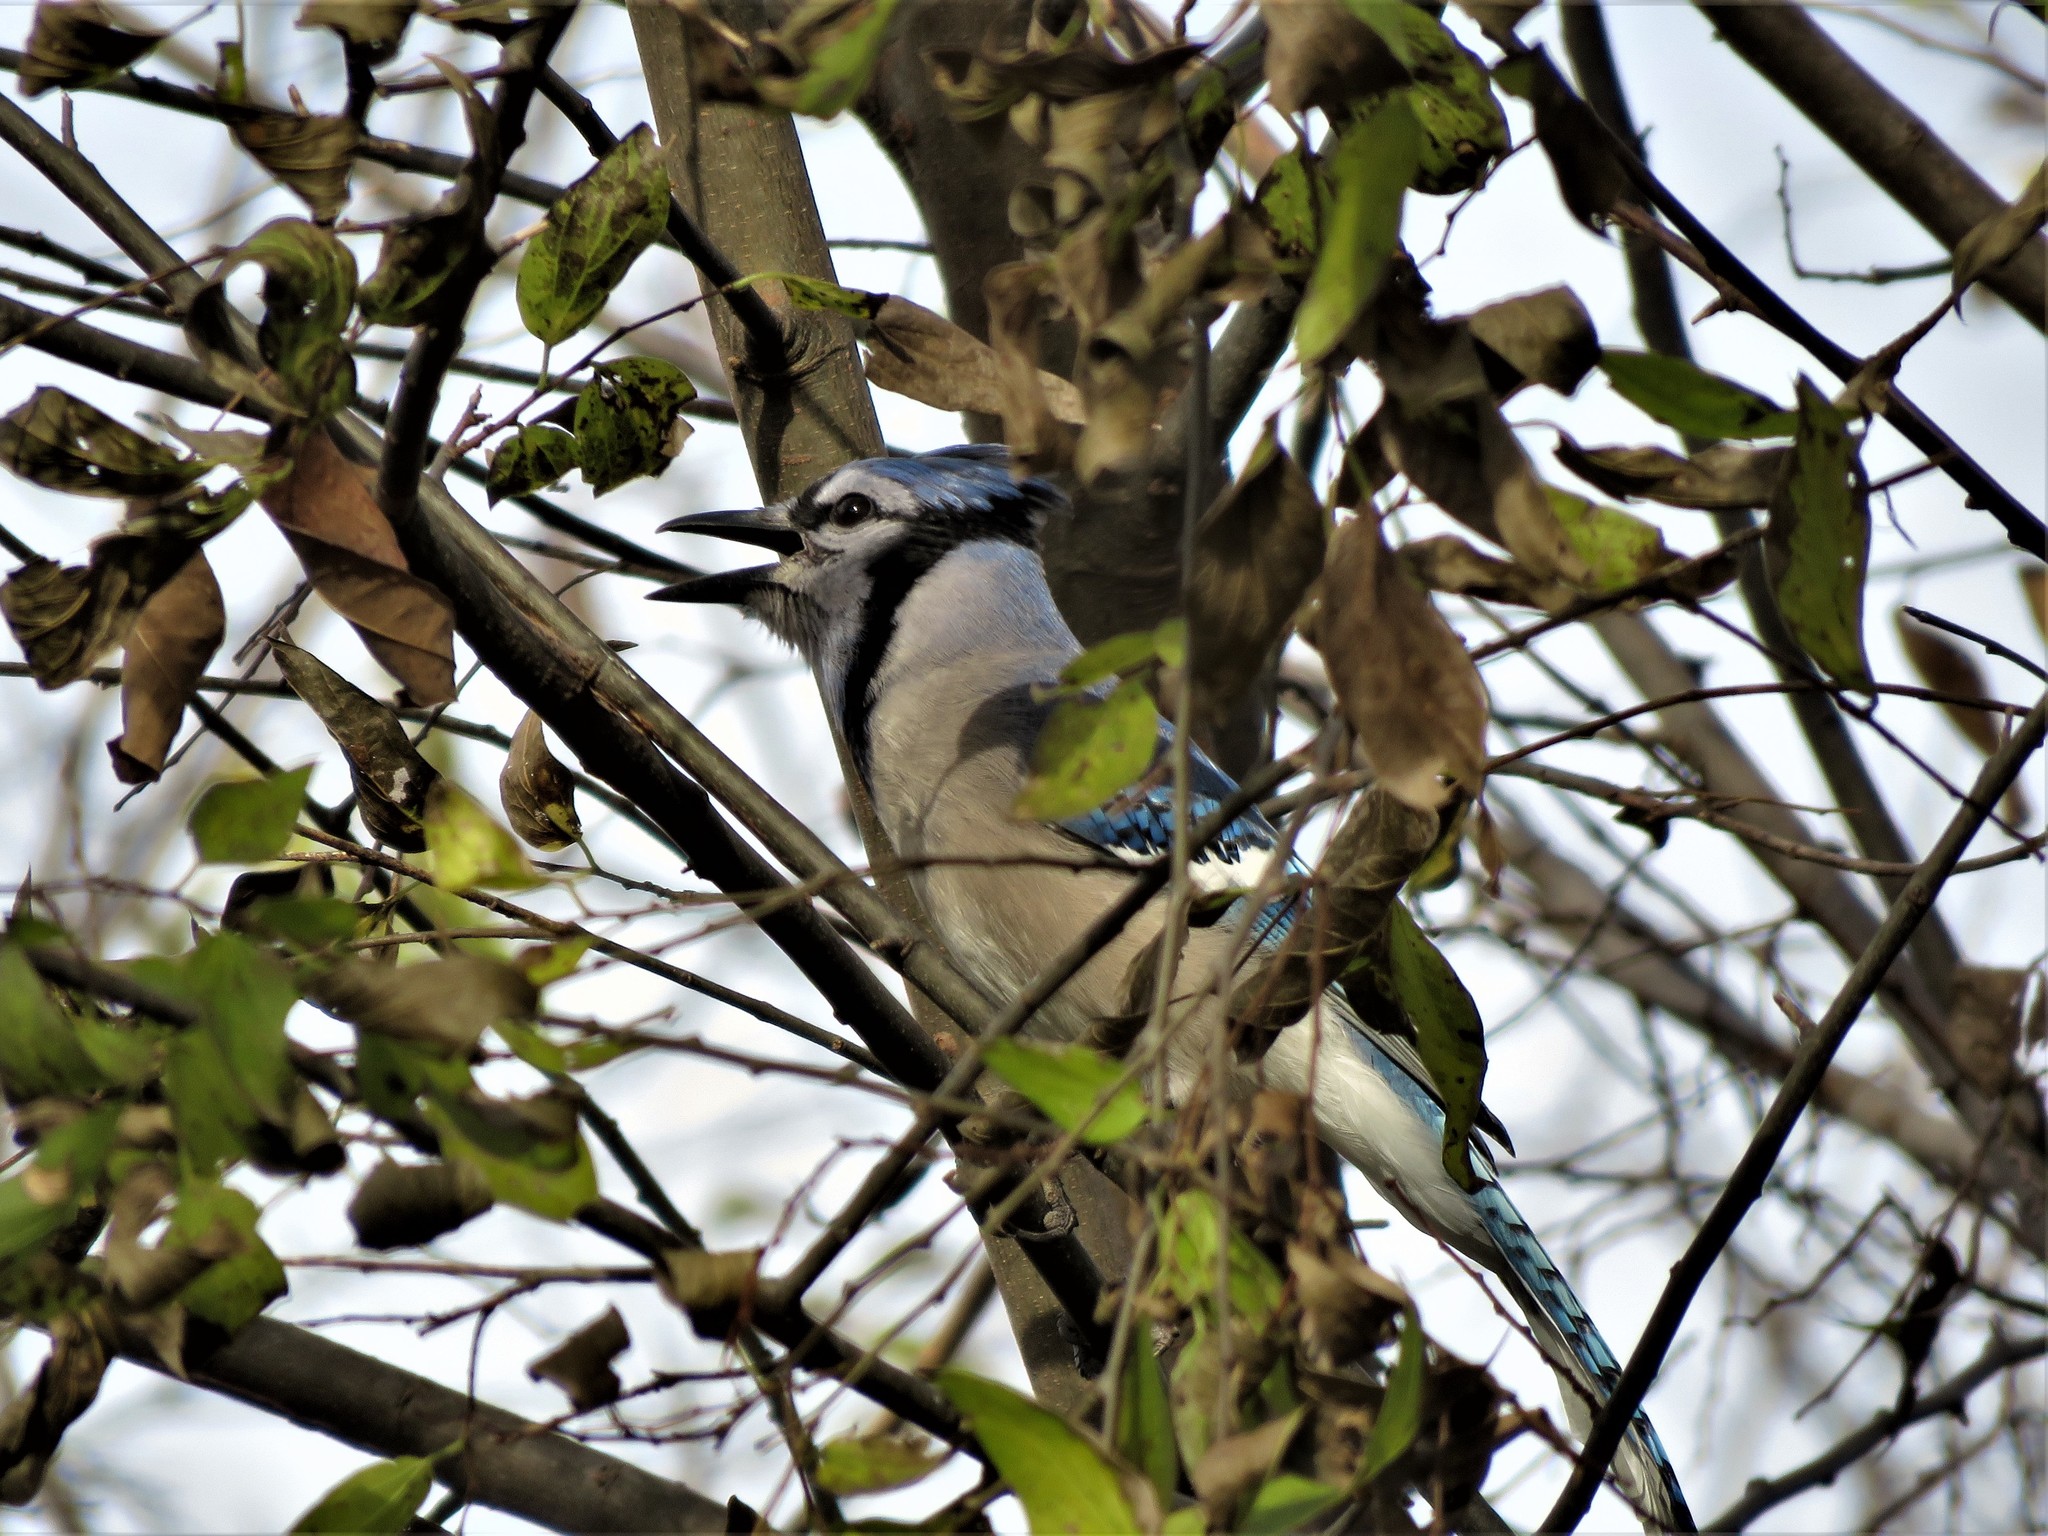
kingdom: Animalia
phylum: Chordata
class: Aves
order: Passeriformes
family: Corvidae
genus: Cyanocitta
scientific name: Cyanocitta cristata
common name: Blue jay
